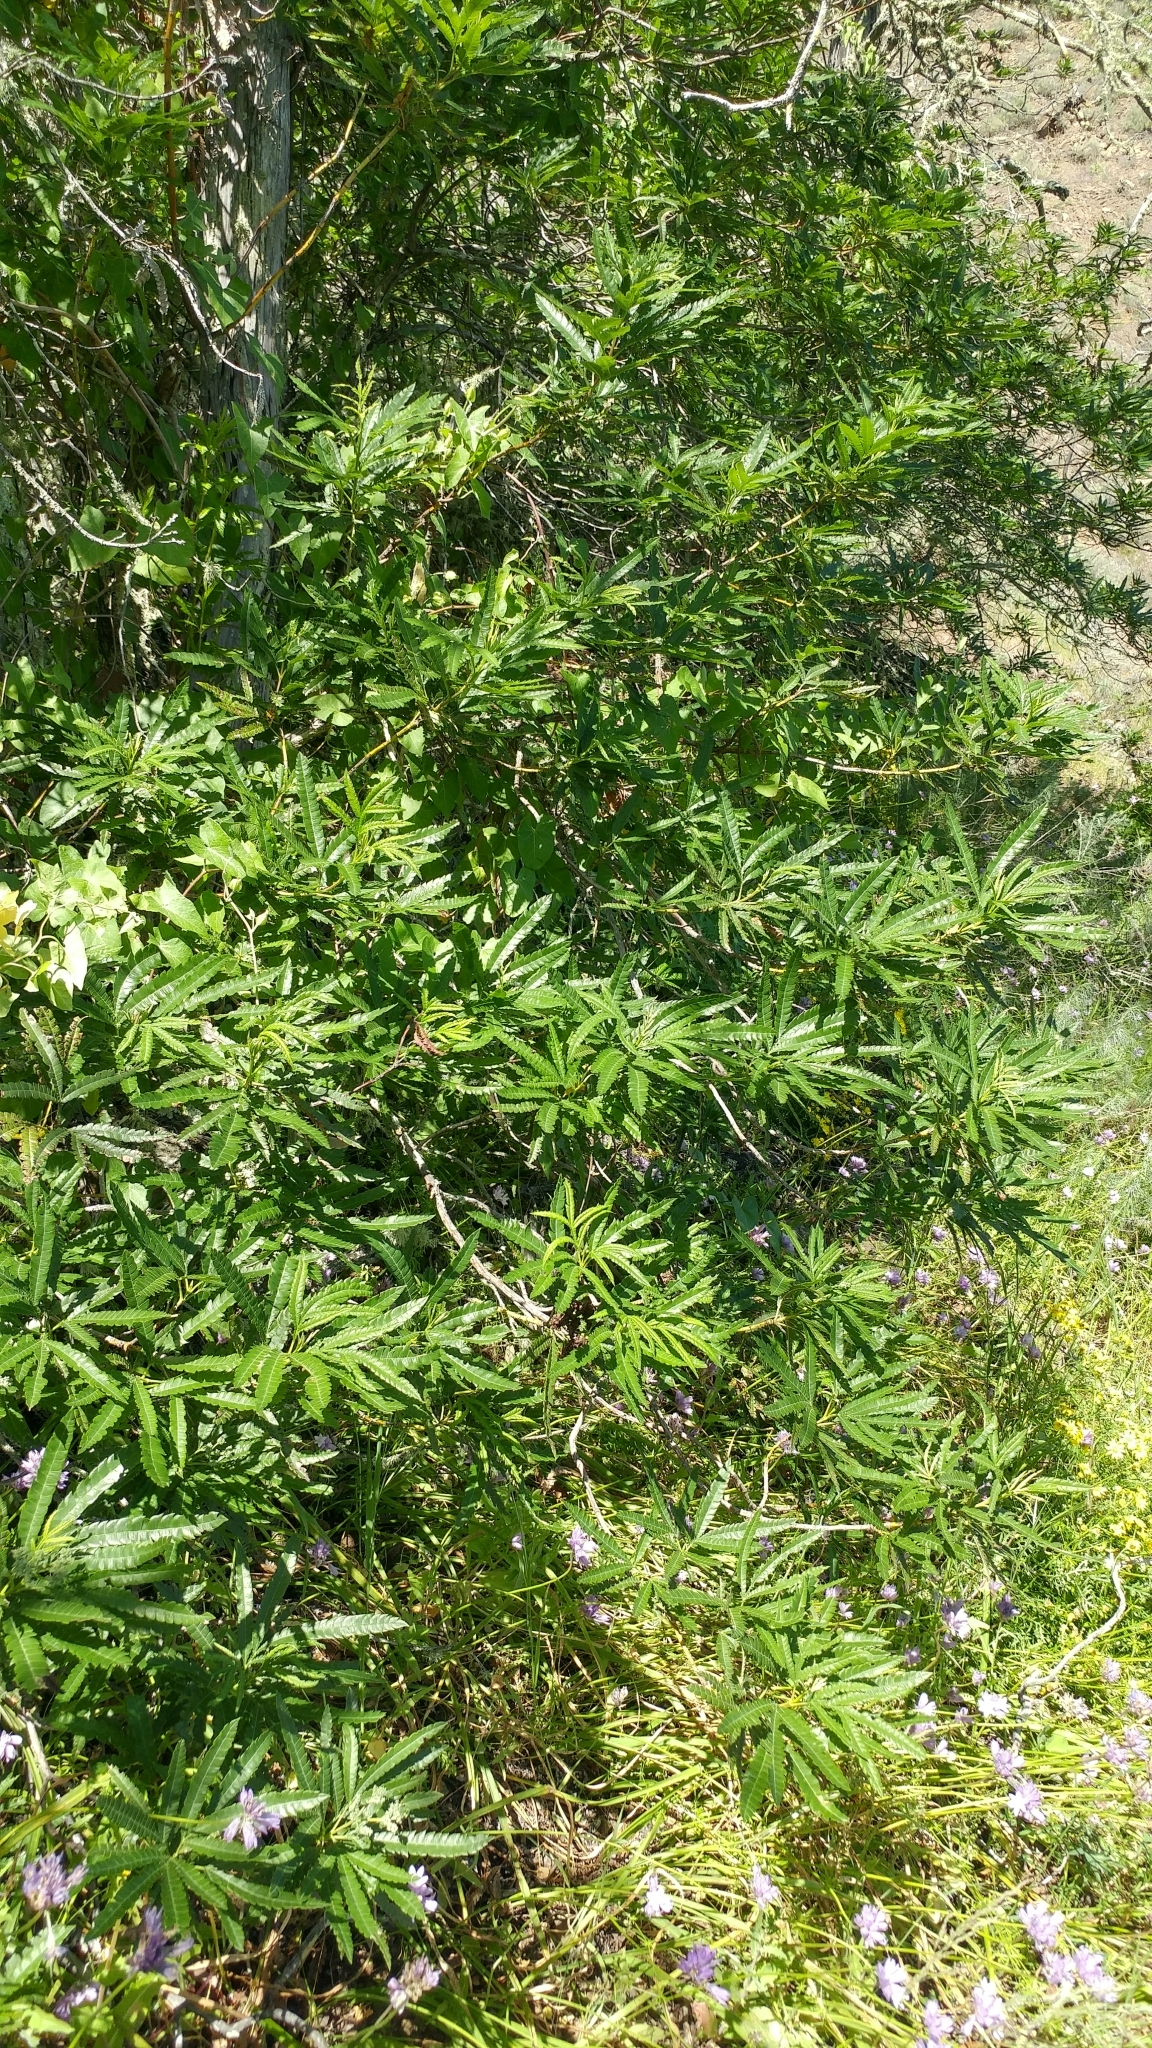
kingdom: Plantae
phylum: Tracheophyta
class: Magnoliopsida
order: Rosales
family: Rosaceae
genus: Lyonothamnus
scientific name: Lyonothamnus floribundus
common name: Catalina ironwood
